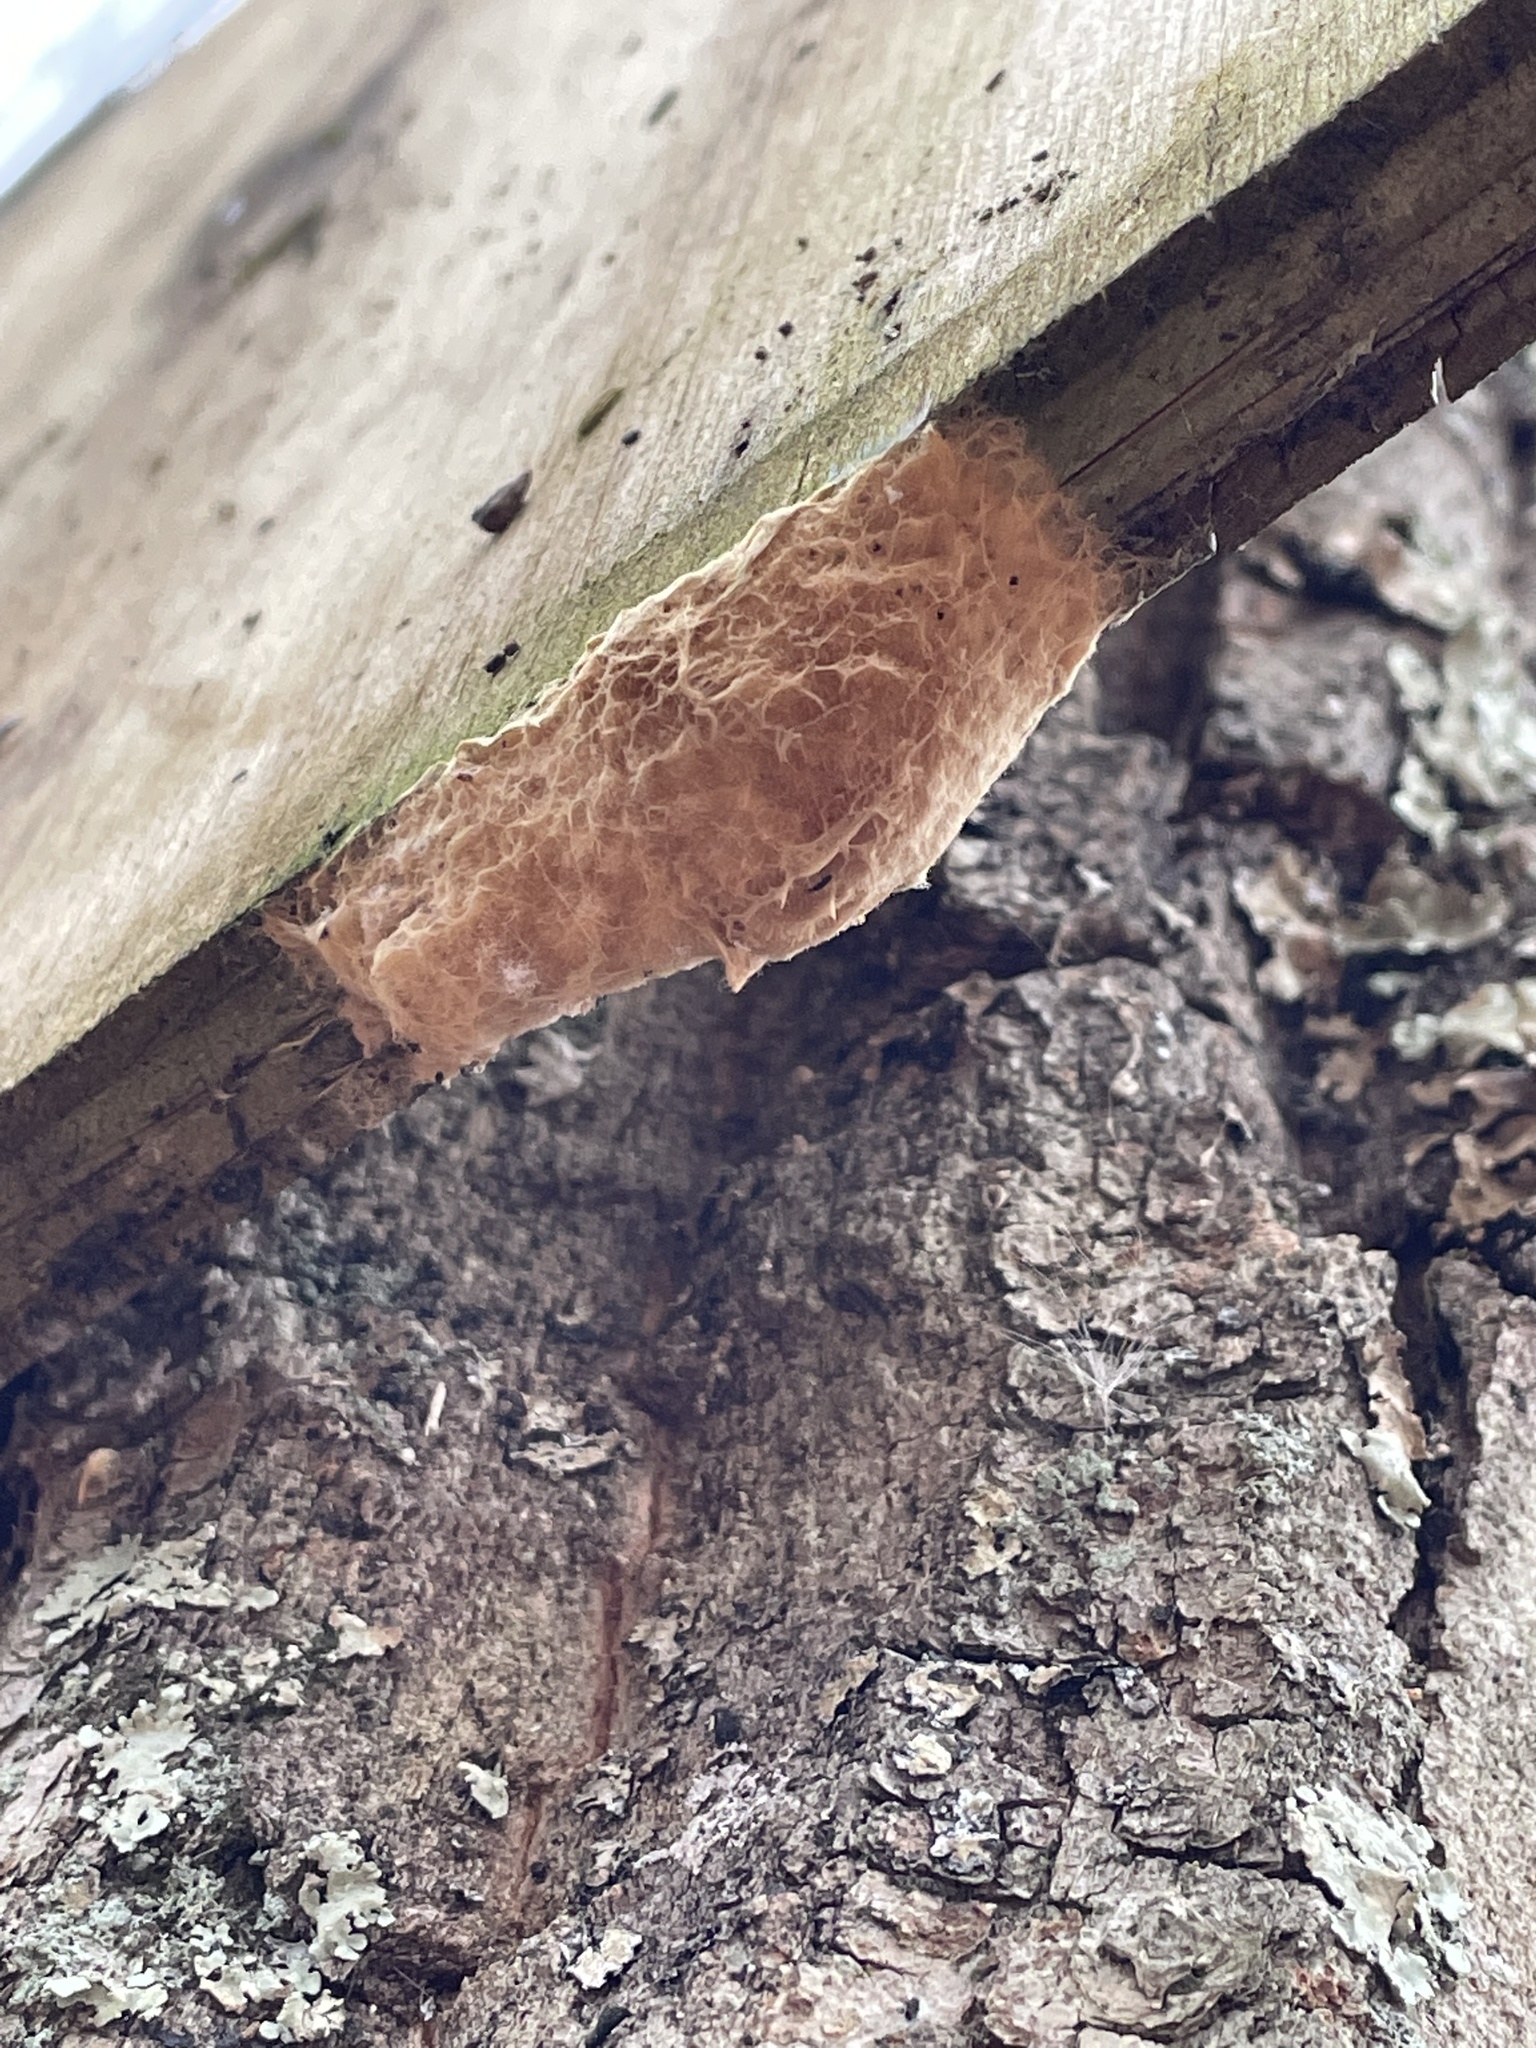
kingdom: Animalia
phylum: Arthropoda
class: Insecta
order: Lepidoptera
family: Erebidae
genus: Lymantria
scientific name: Lymantria dispar
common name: Gypsy moth
